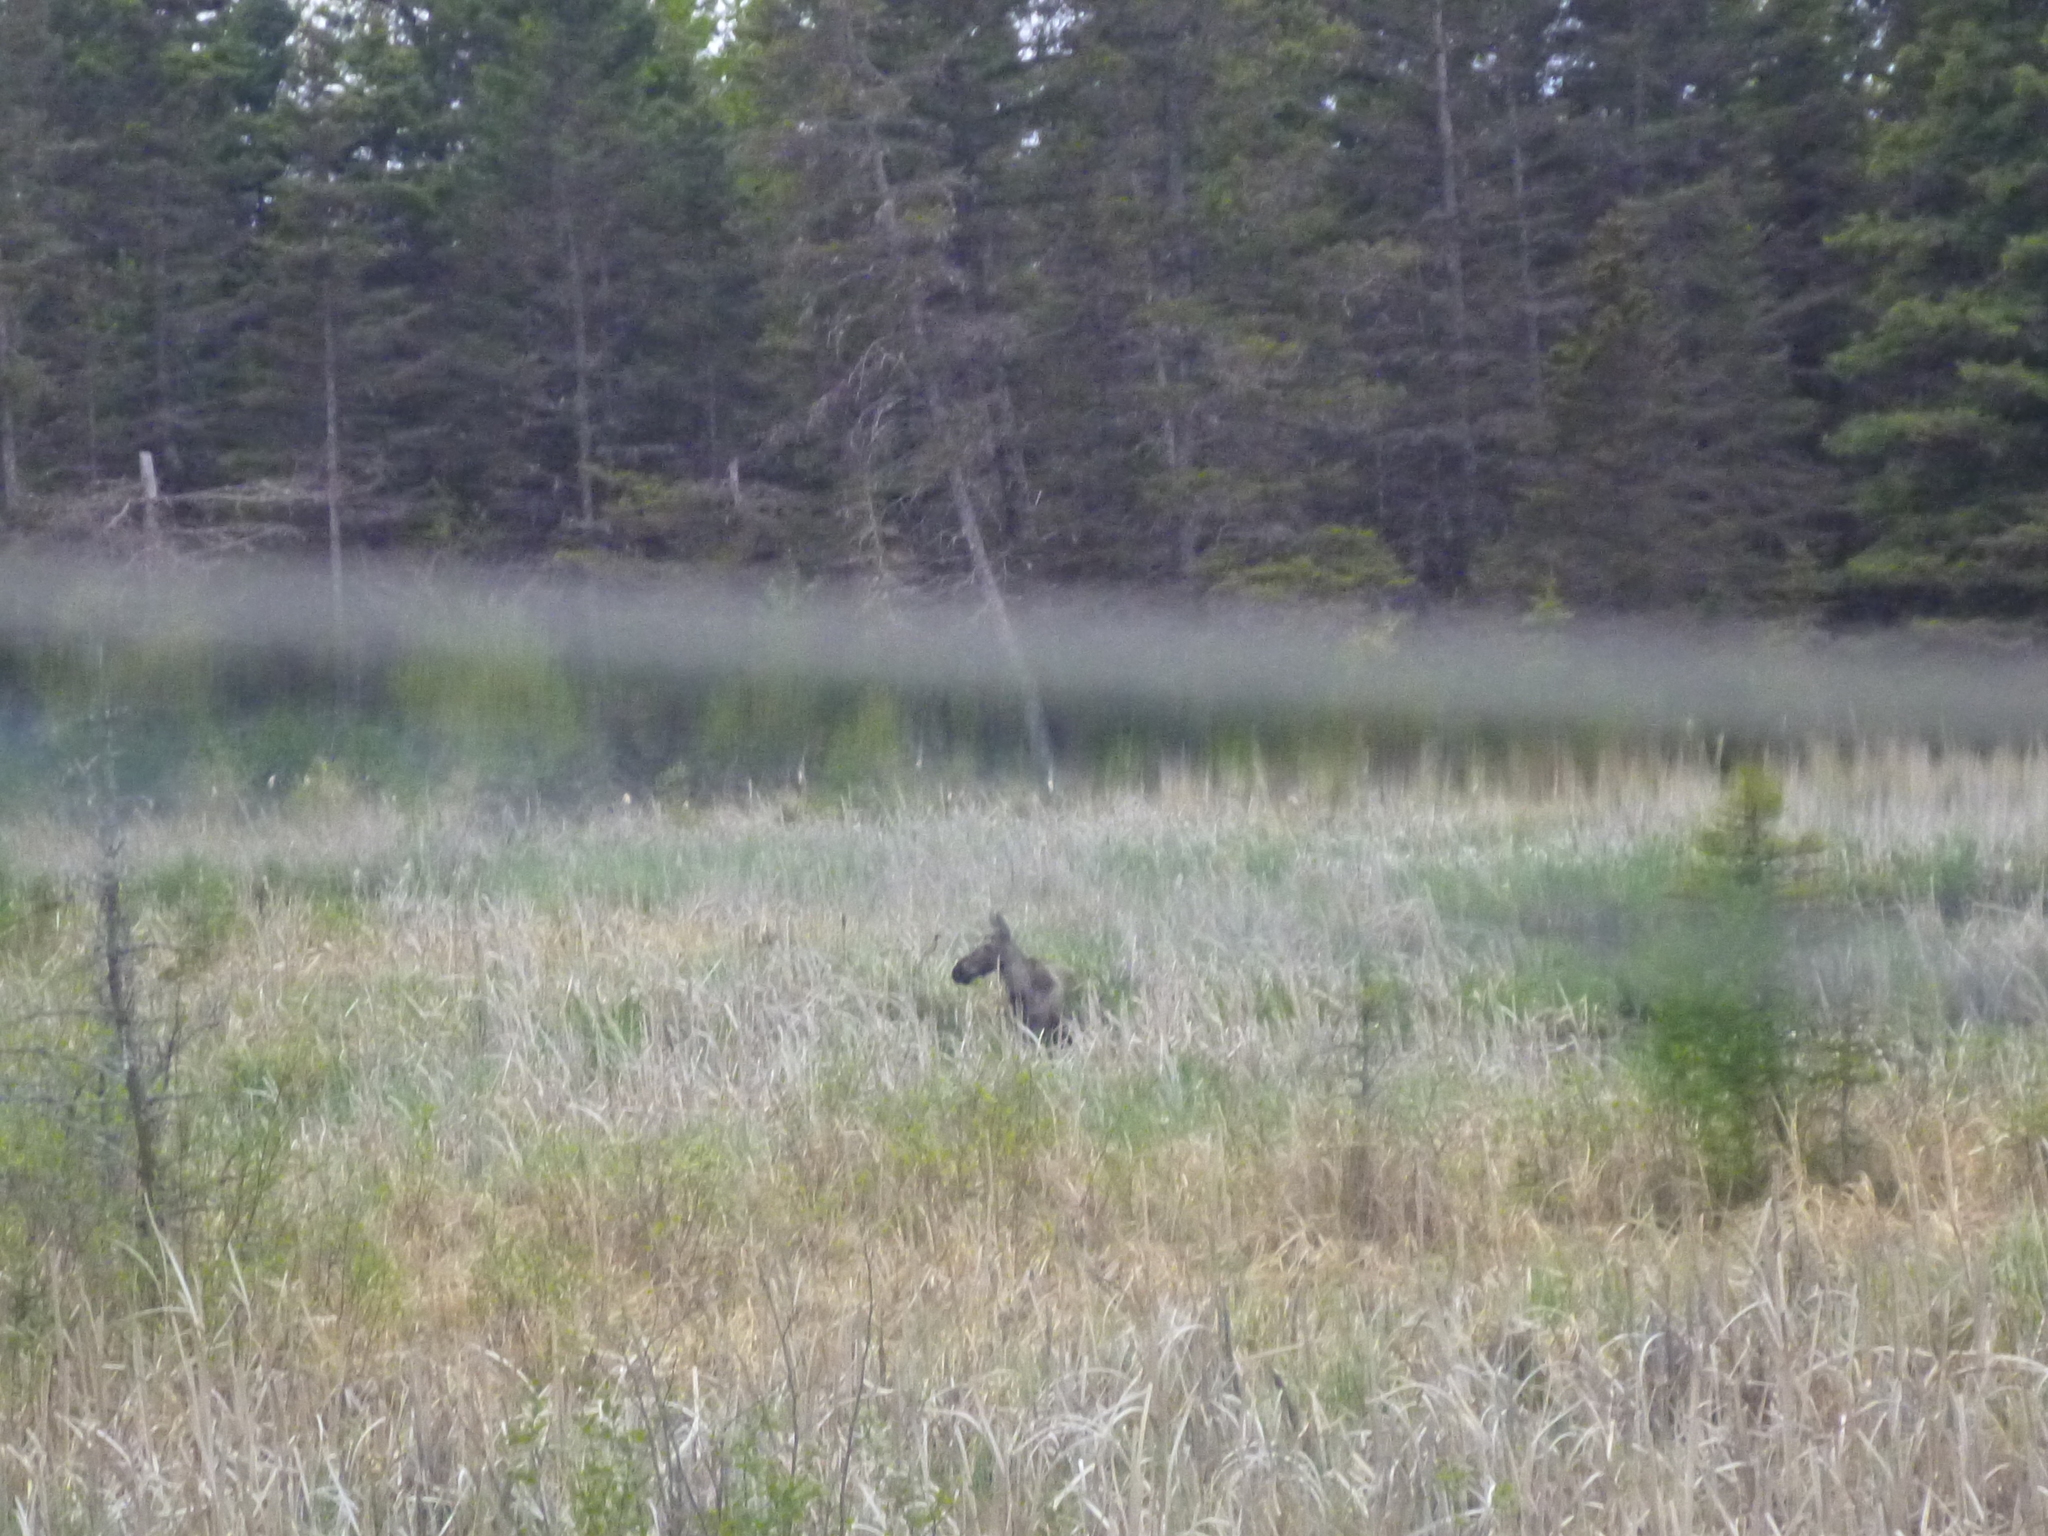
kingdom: Animalia
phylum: Chordata
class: Mammalia
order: Artiodactyla
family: Cervidae
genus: Alces
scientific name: Alces alces
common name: Moose
